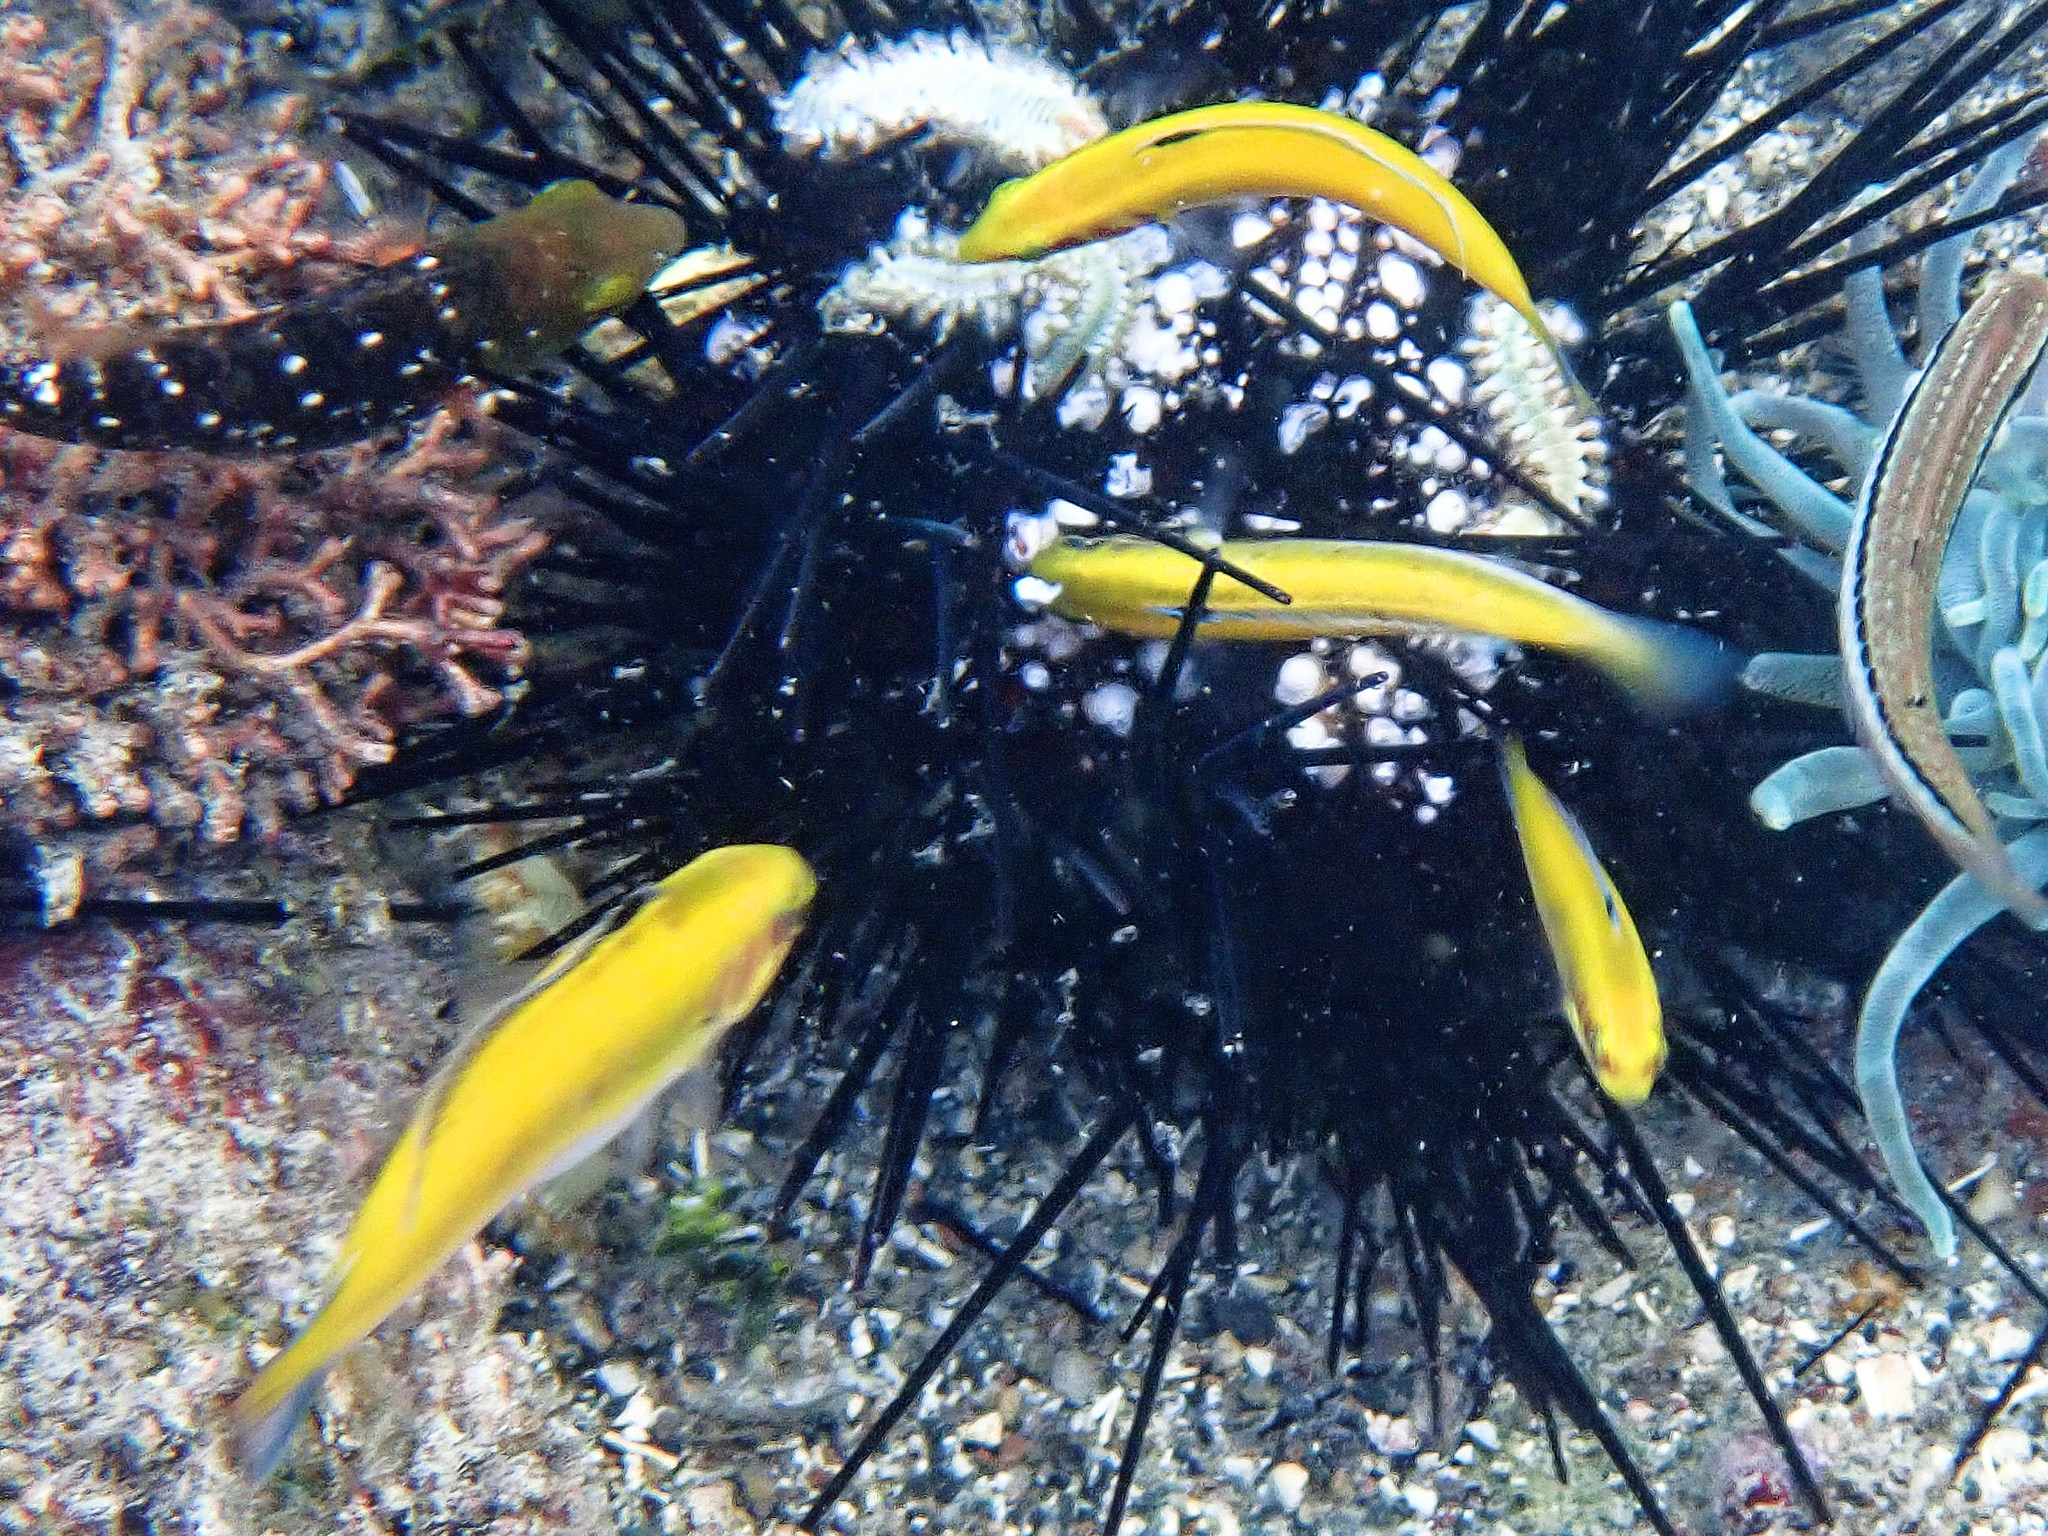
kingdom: Animalia
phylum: Chordata
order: Perciformes
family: Labridae
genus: Thalassoma
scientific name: Thalassoma bifasciatum
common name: Bluehead wrasse
